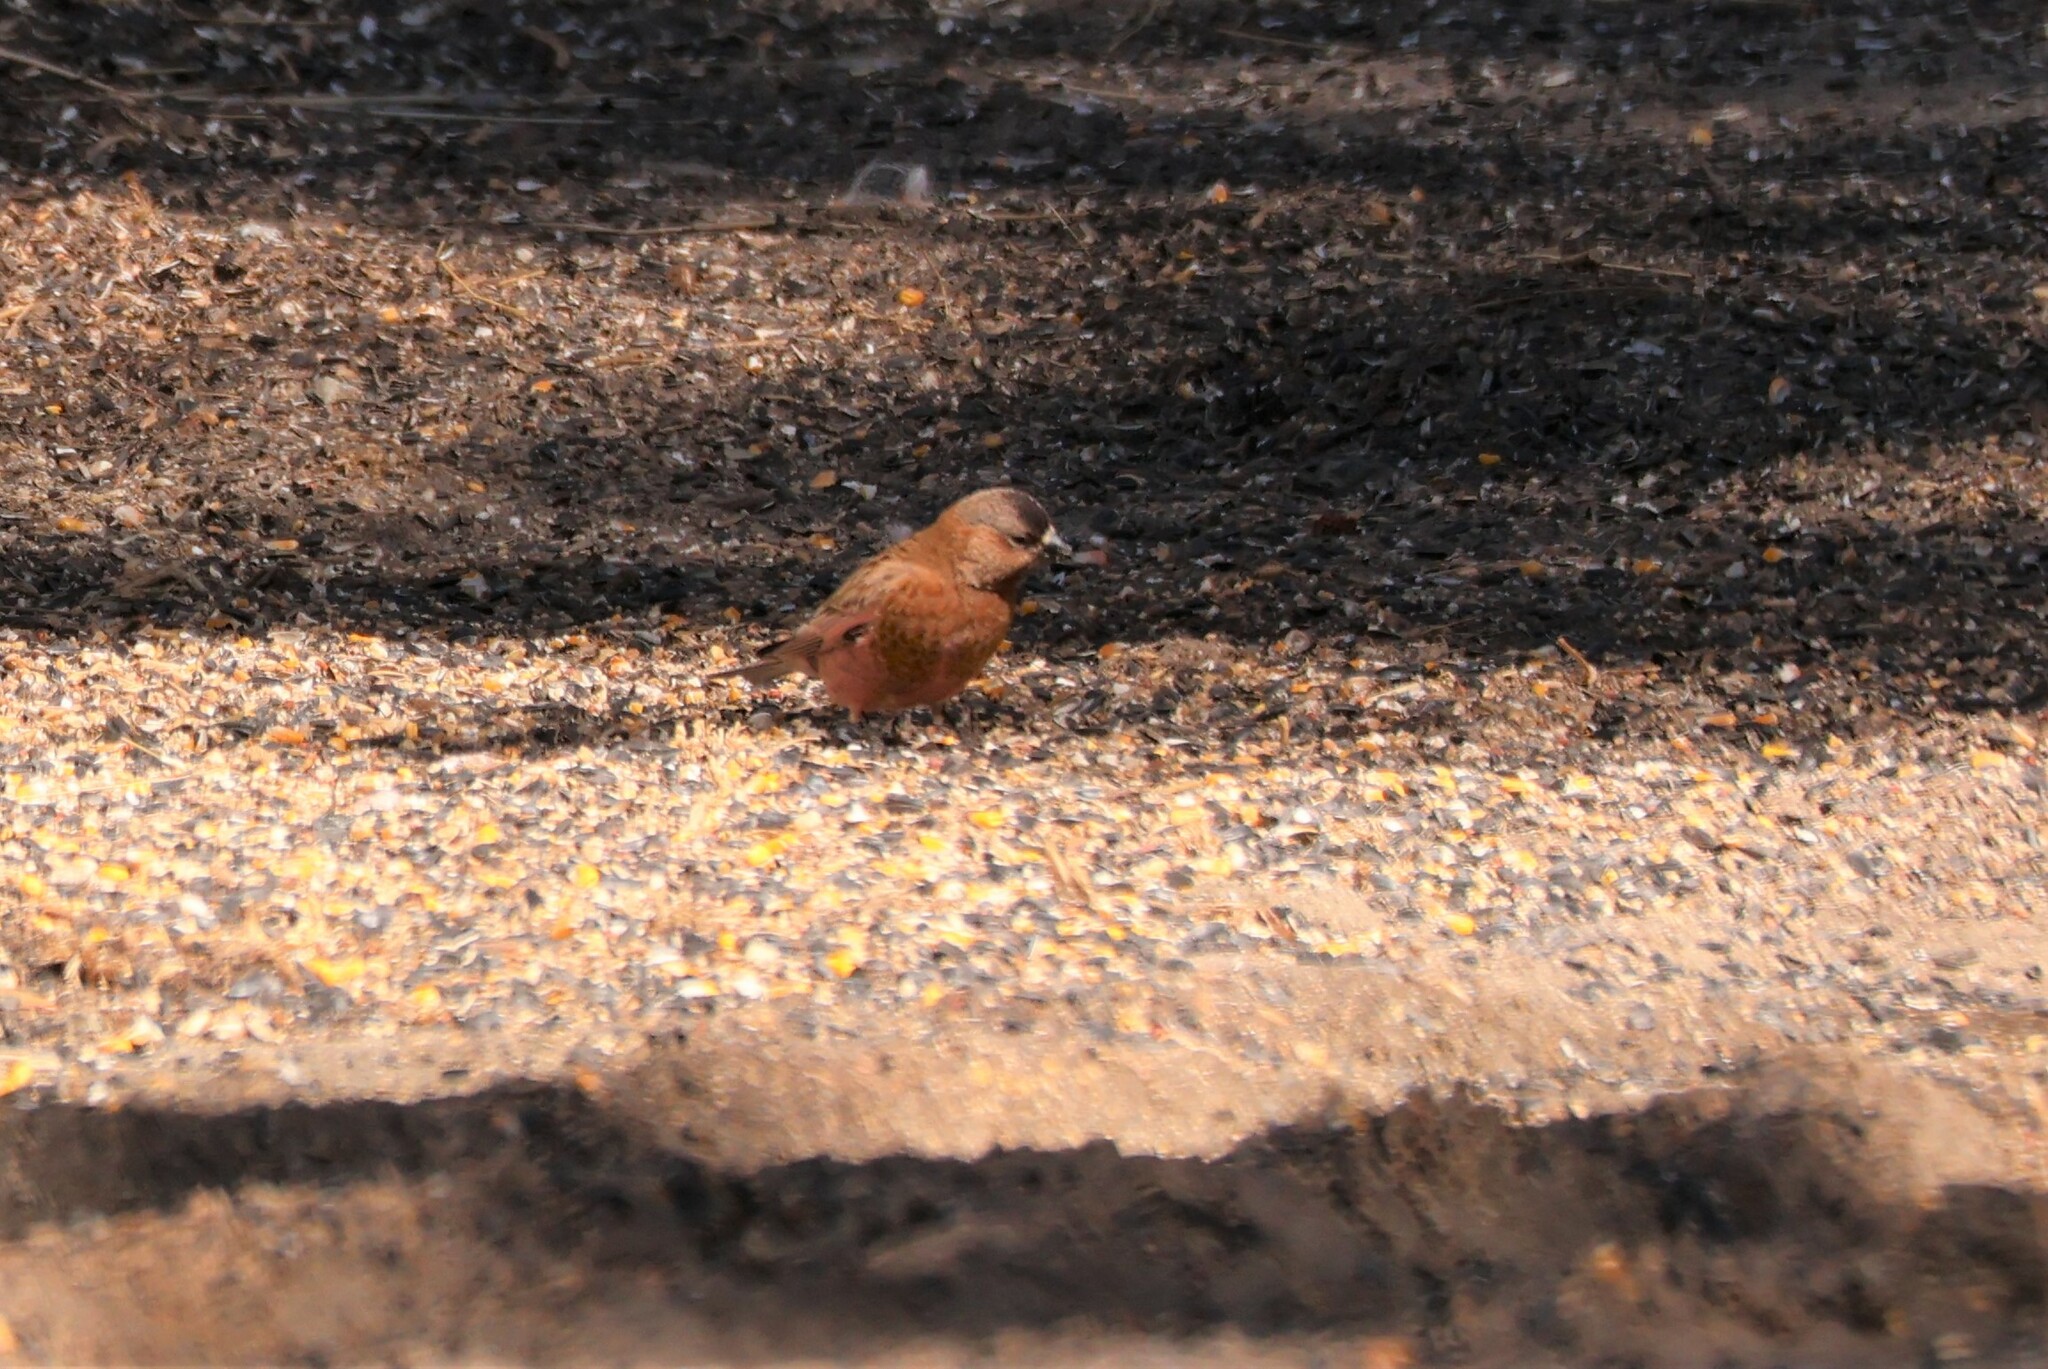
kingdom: Animalia
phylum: Chordata
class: Aves
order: Passeriformes
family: Fringillidae
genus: Leucosticte
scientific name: Leucosticte australis
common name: Brown-capped rosy-finch
